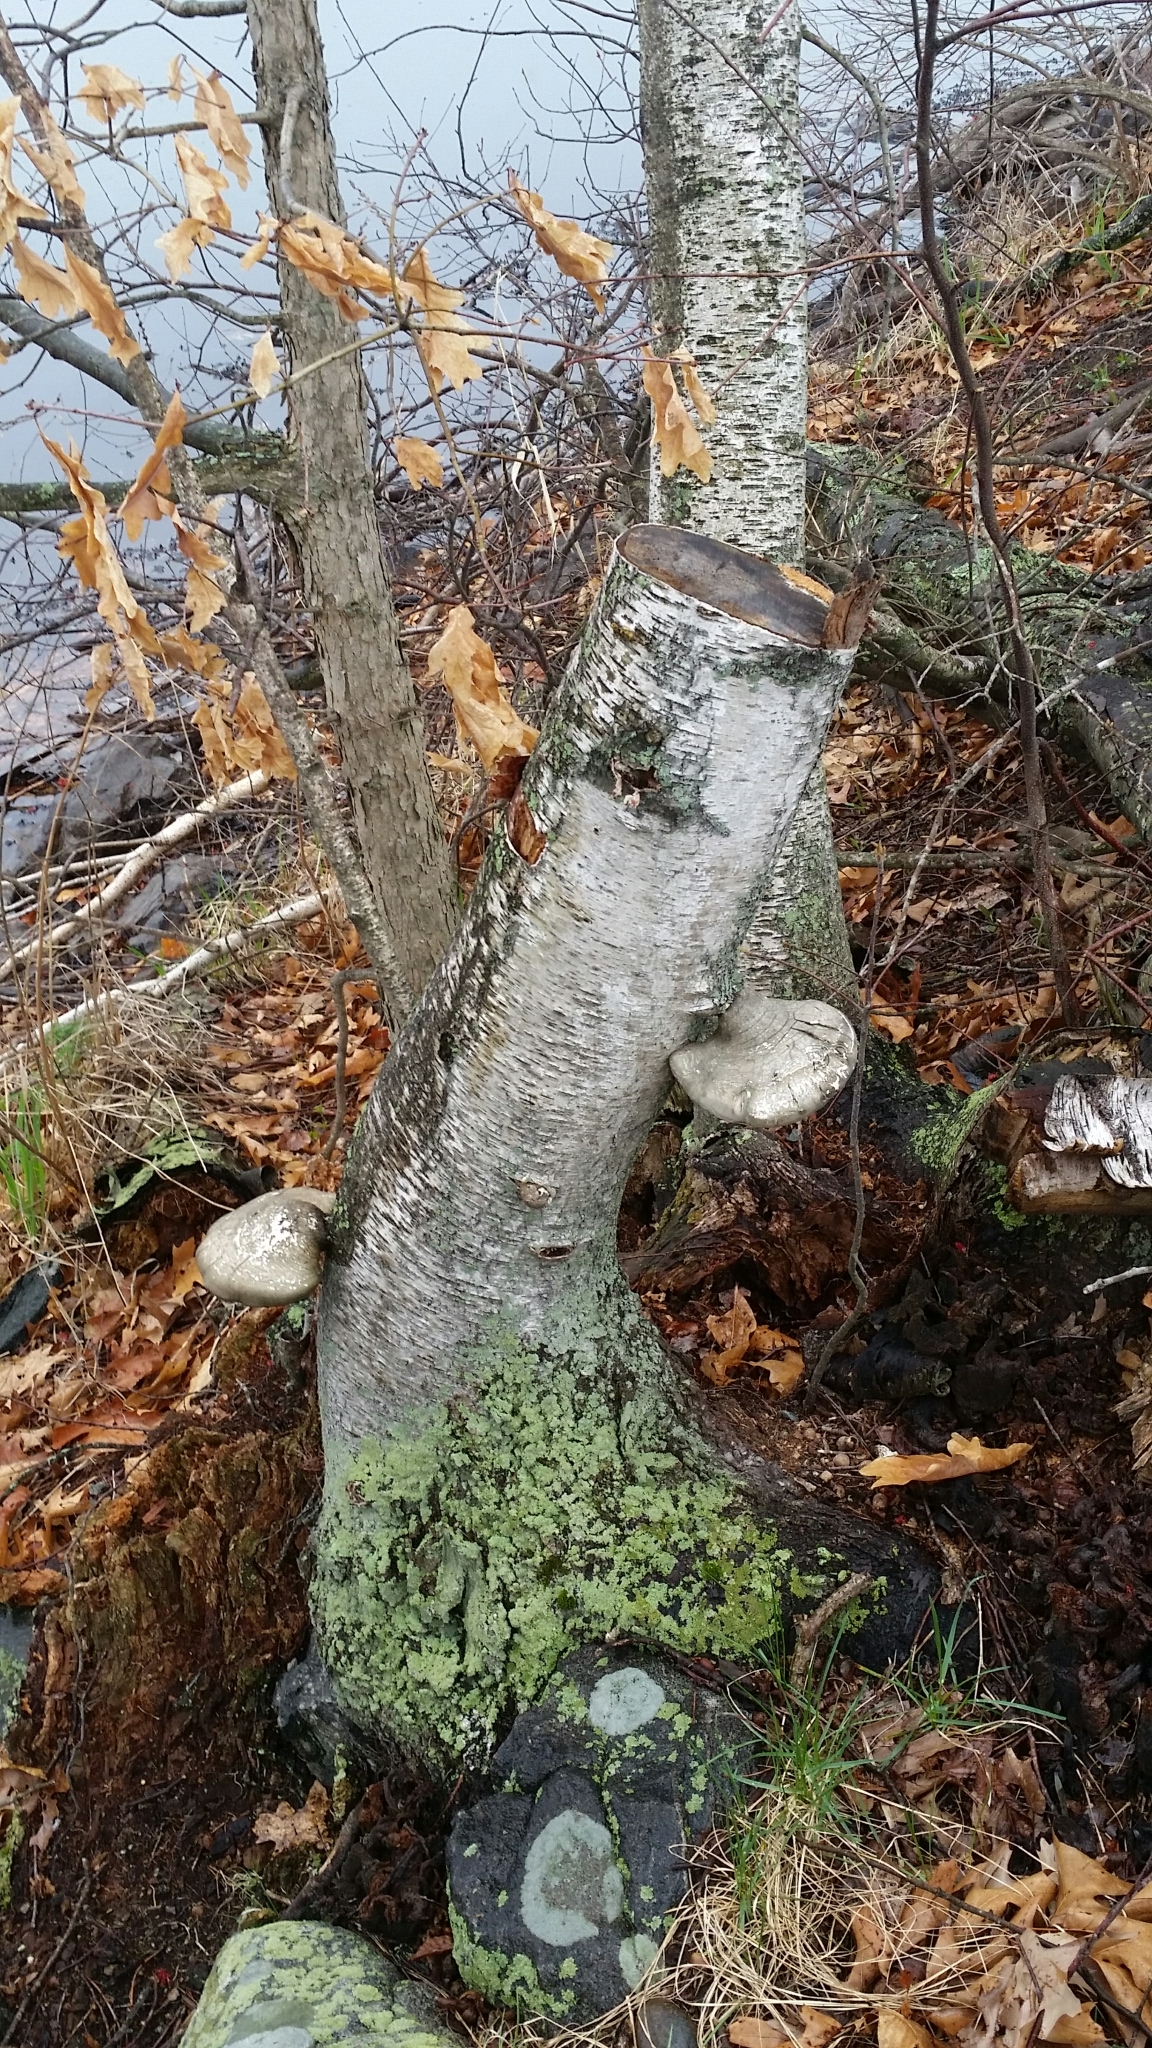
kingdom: Fungi
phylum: Basidiomycota
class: Agaricomycetes
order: Polyporales
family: Fomitopsidaceae
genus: Fomitopsis
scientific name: Fomitopsis betulina
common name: Birch polypore
